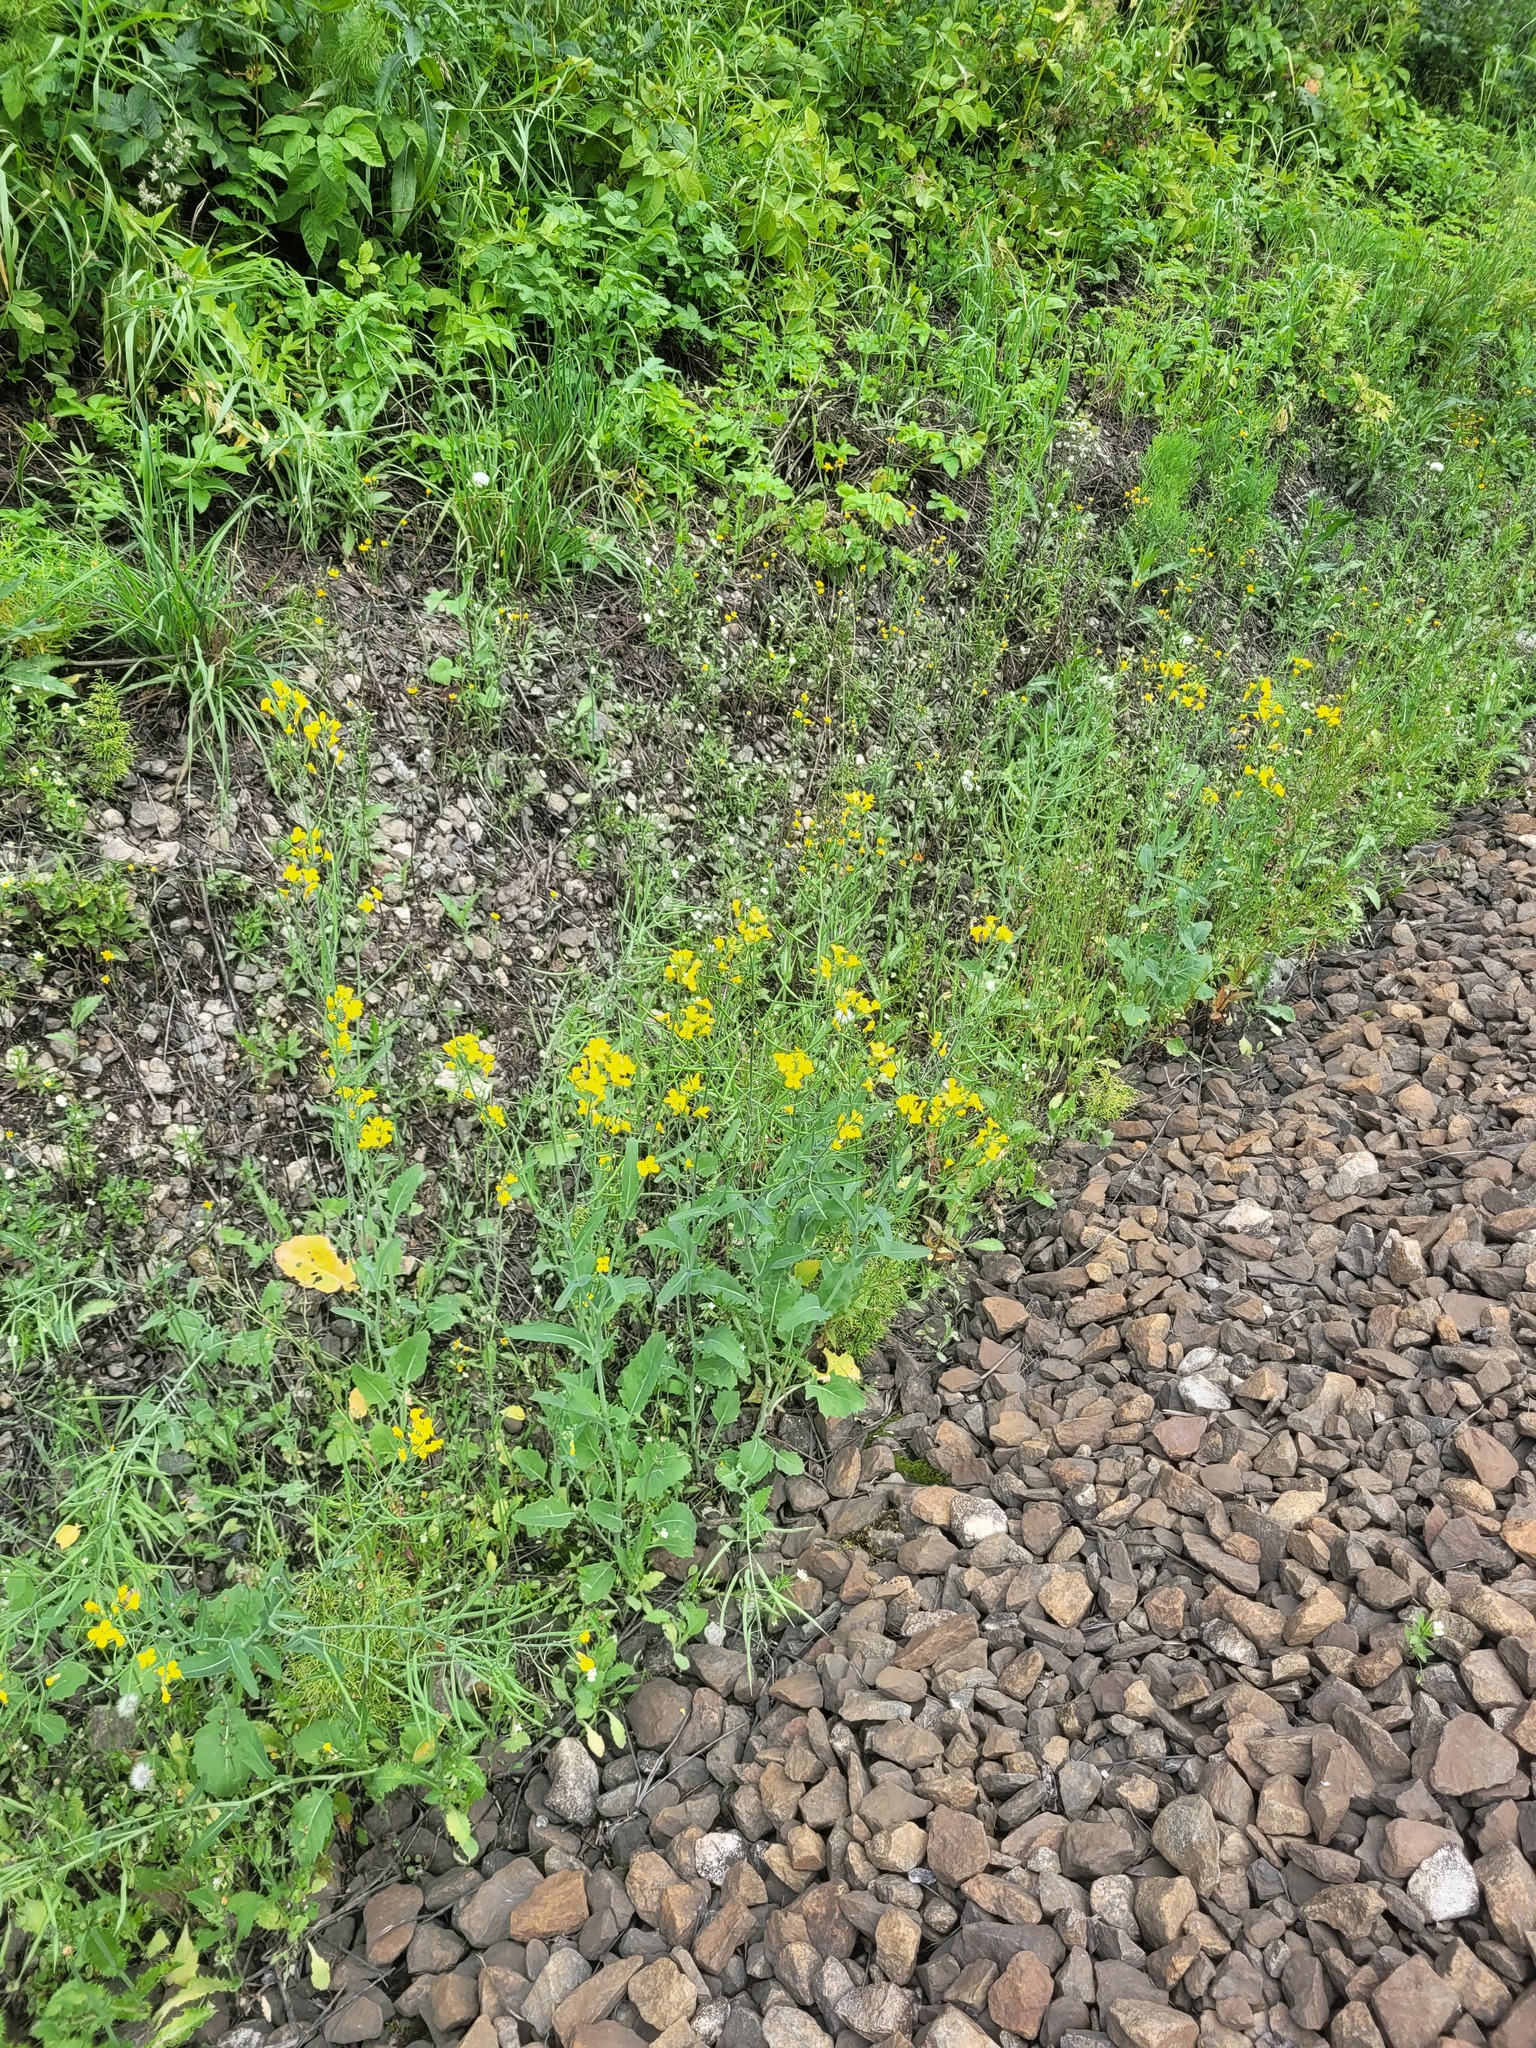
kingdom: Plantae
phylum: Tracheophyta
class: Magnoliopsida
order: Brassicales
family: Brassicaceae
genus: Brassica
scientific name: Brassica napus
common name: Rape
